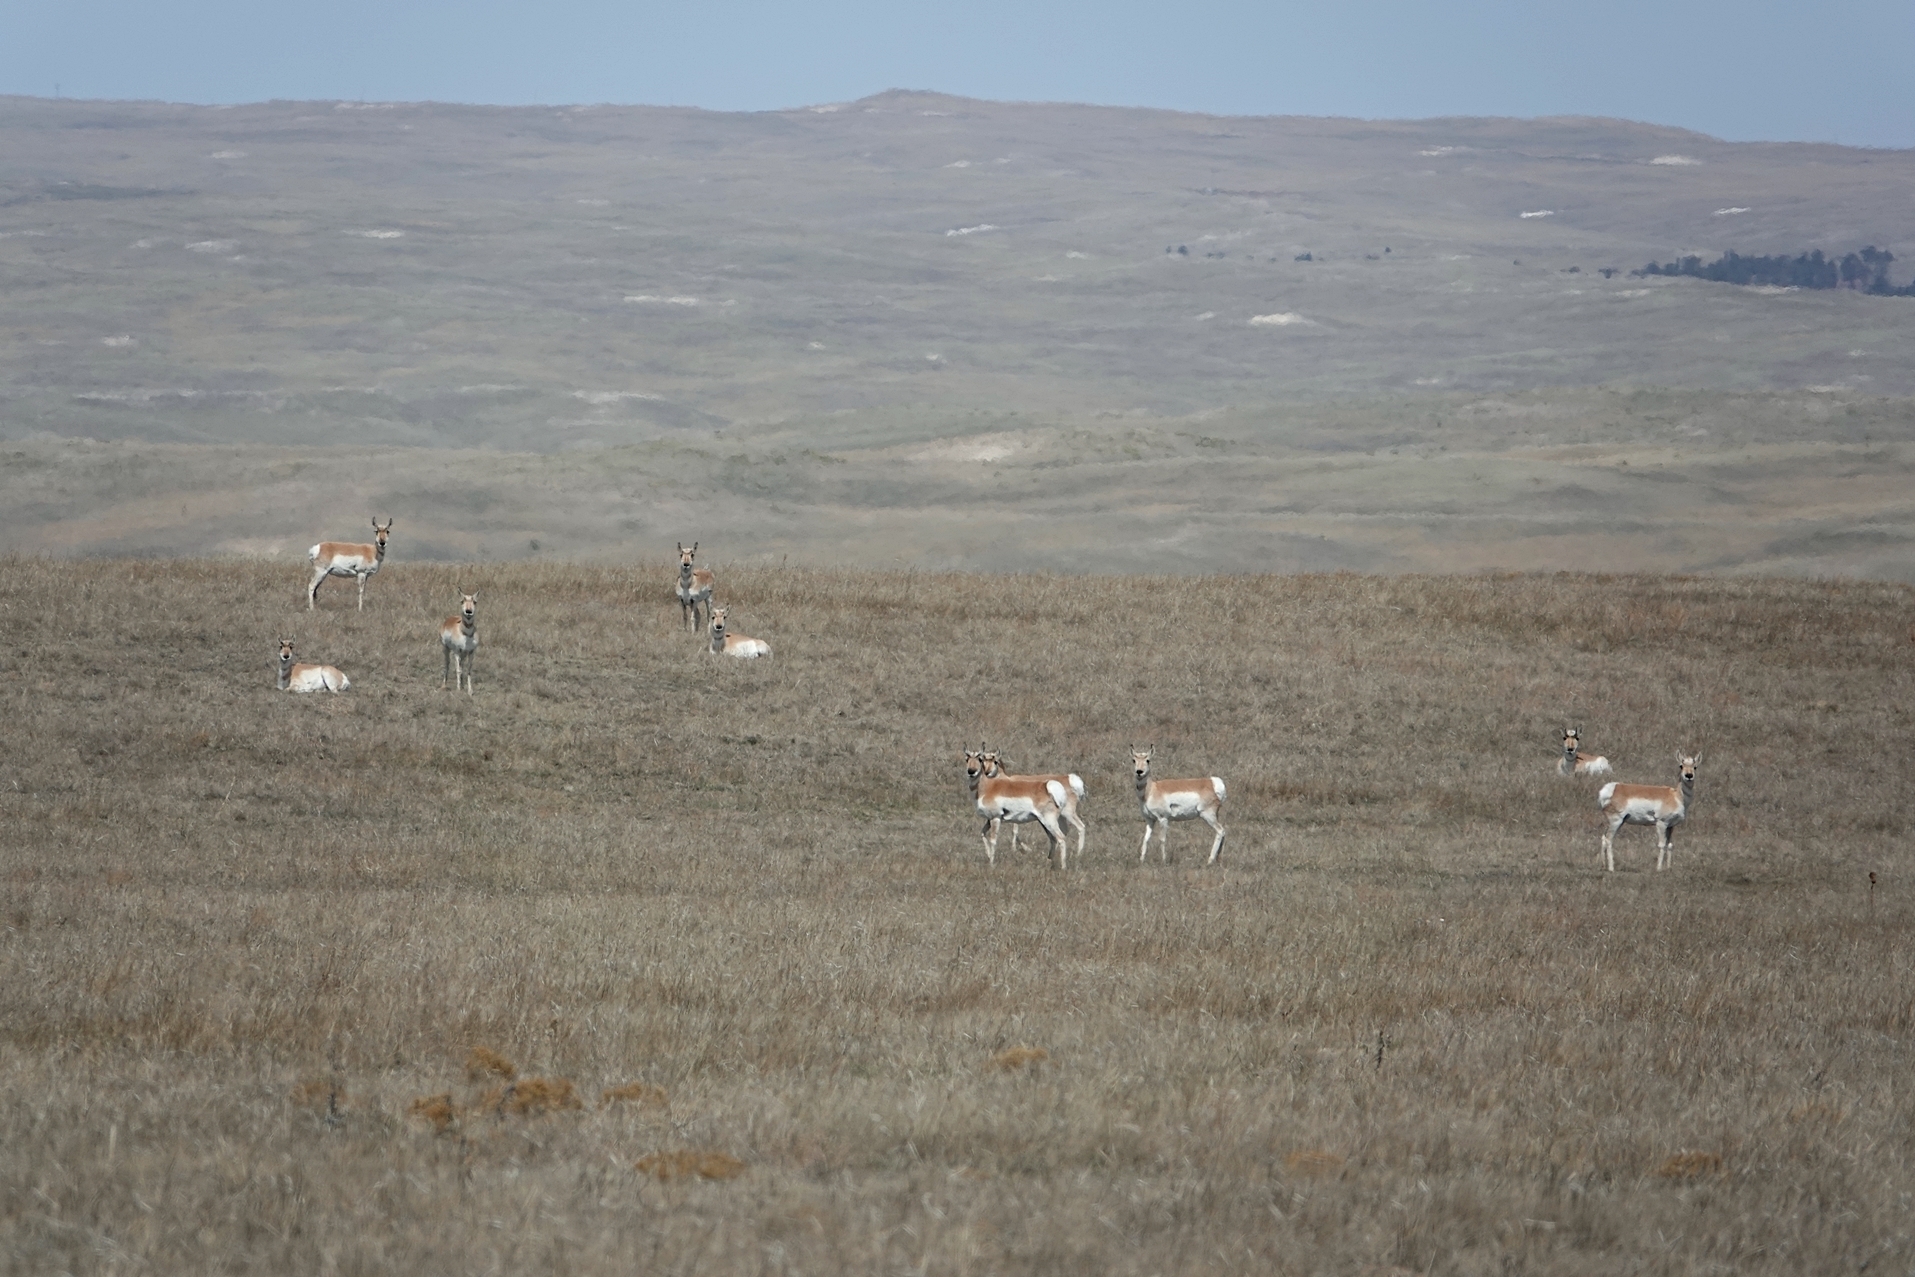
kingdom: Animalia
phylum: Chordata
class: Mammalia
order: Artiodactyla
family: Antilocapridae
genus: Antilocapra
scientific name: Antilocapra americana
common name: Pronghorn
